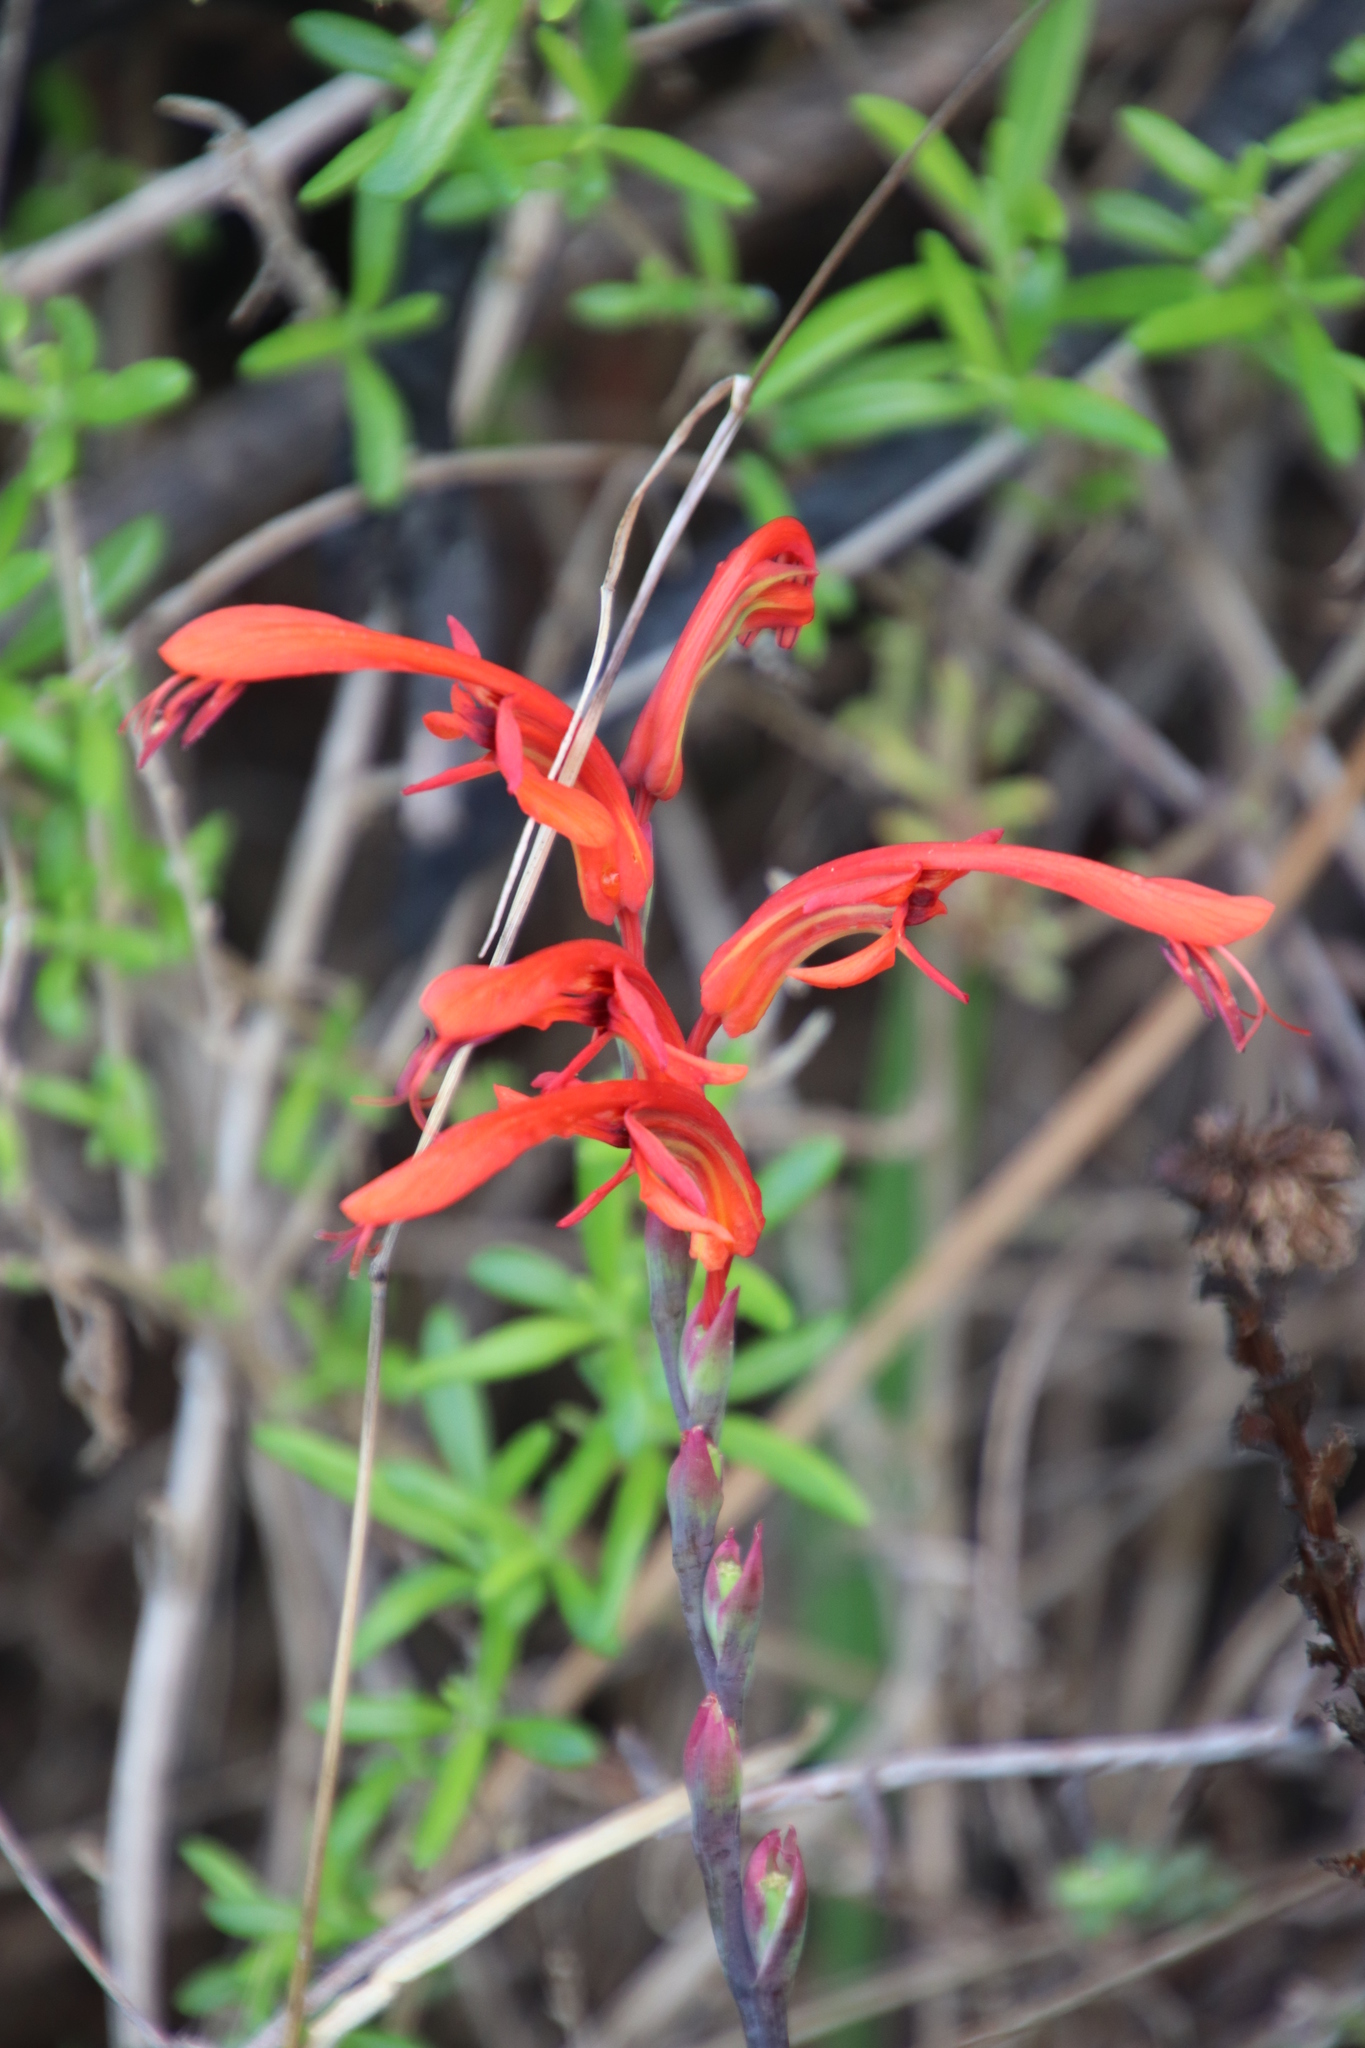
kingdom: Plantae
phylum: Tracheophyta
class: Liliopsida
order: Asparagales
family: Iridaceae
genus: Chasmanthe
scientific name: Chasmanthe aethiopica
